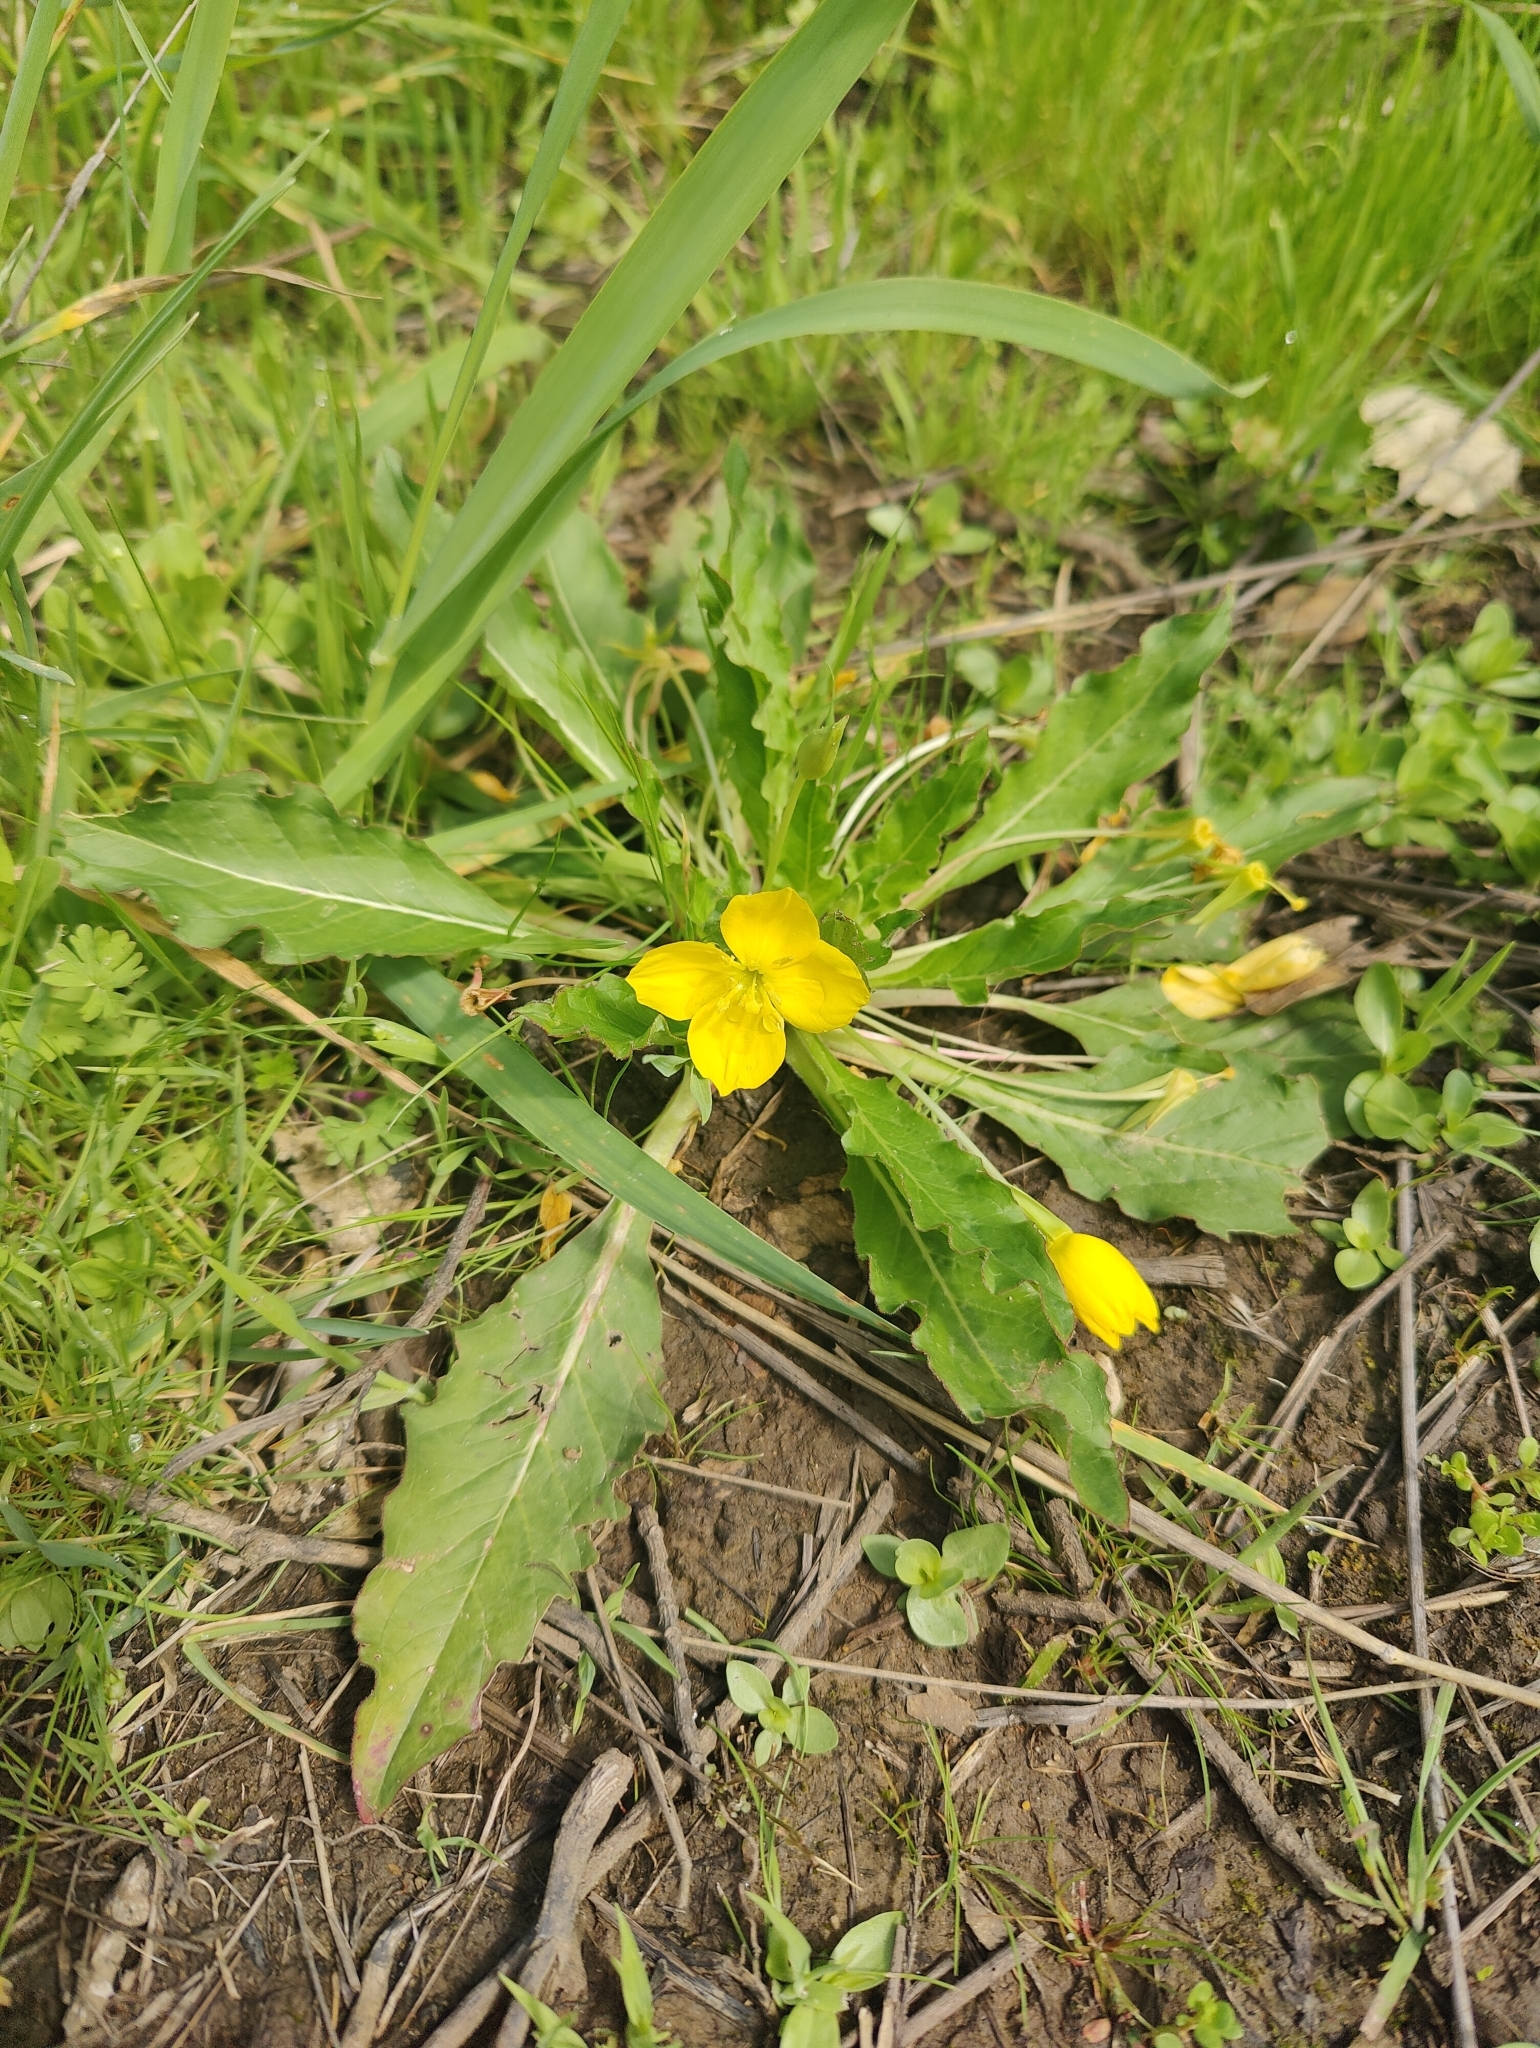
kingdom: Plantae
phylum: Tracheophyta
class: Magnoliopsida
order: Myrtales
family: Onagraceae
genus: Taraxia
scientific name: Taraxia ovata
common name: Goldeneggs
